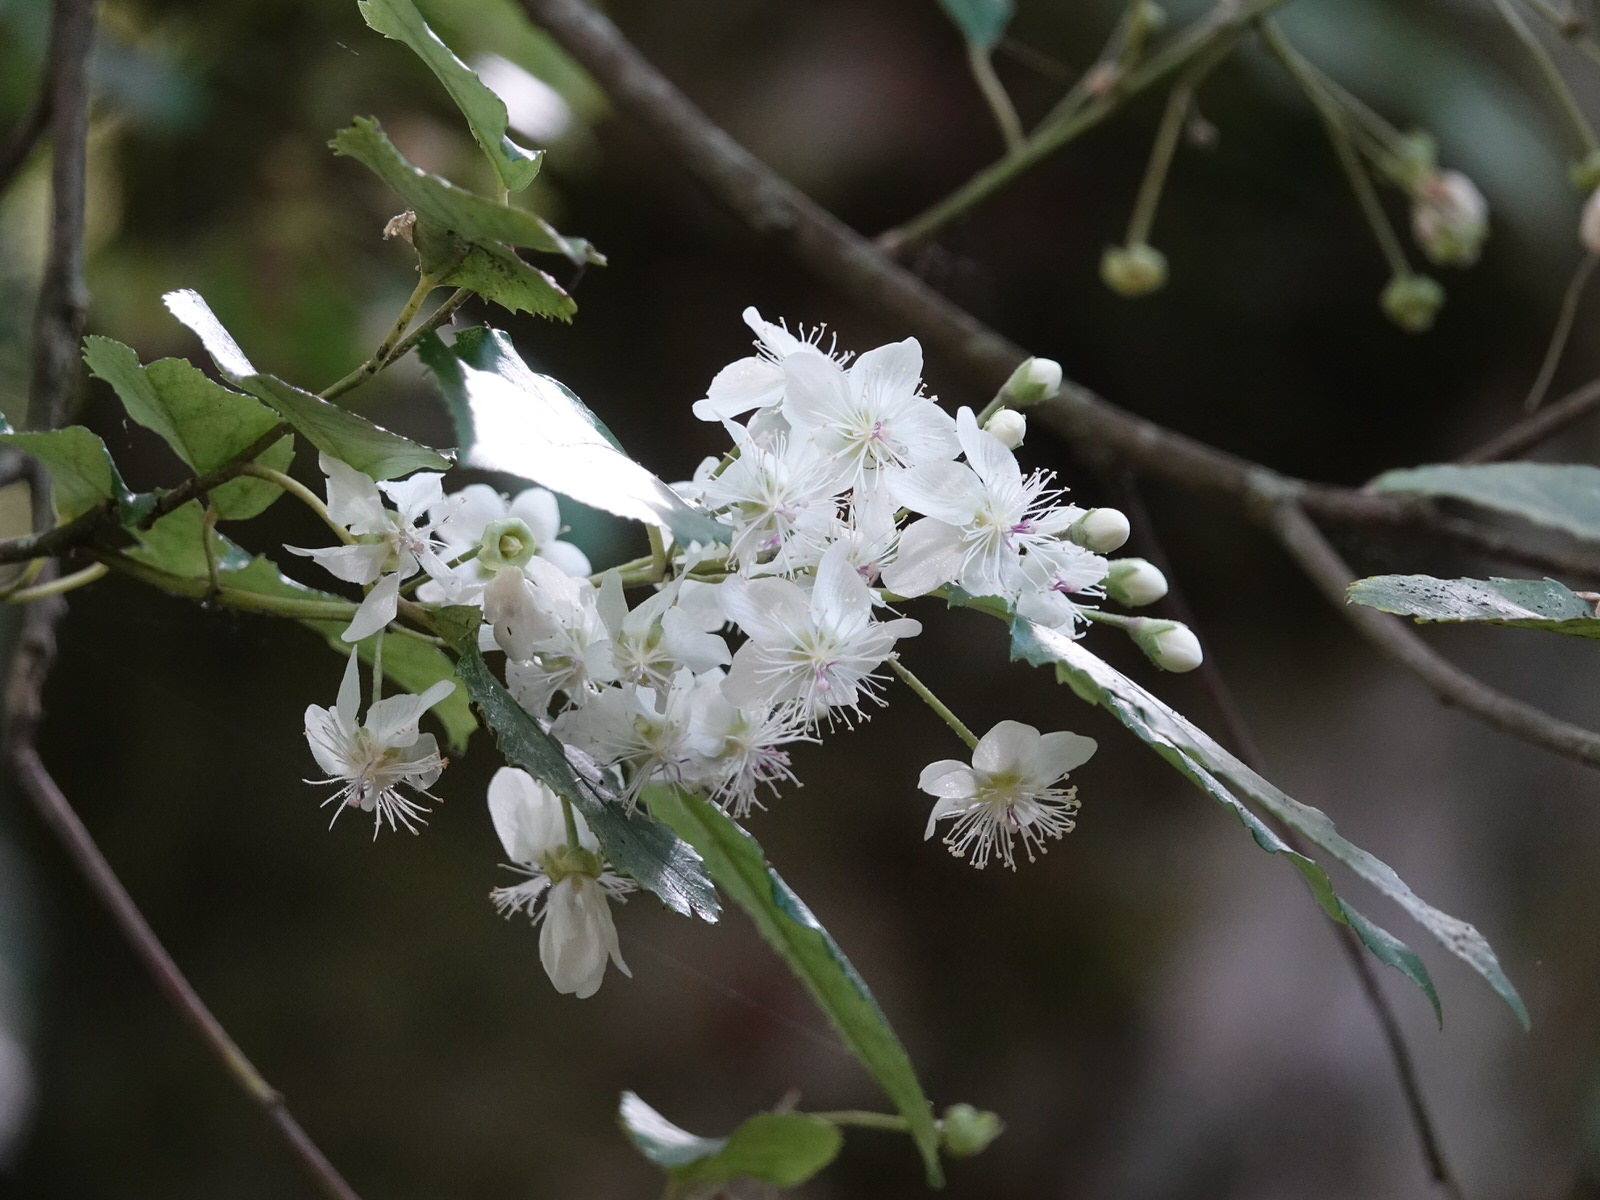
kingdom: Plantae
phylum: Tracheophyta
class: Magnoliopsida
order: Malvales
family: Malvaceae
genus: Hoheria
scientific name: Hoheria populnea
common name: Lacebark
